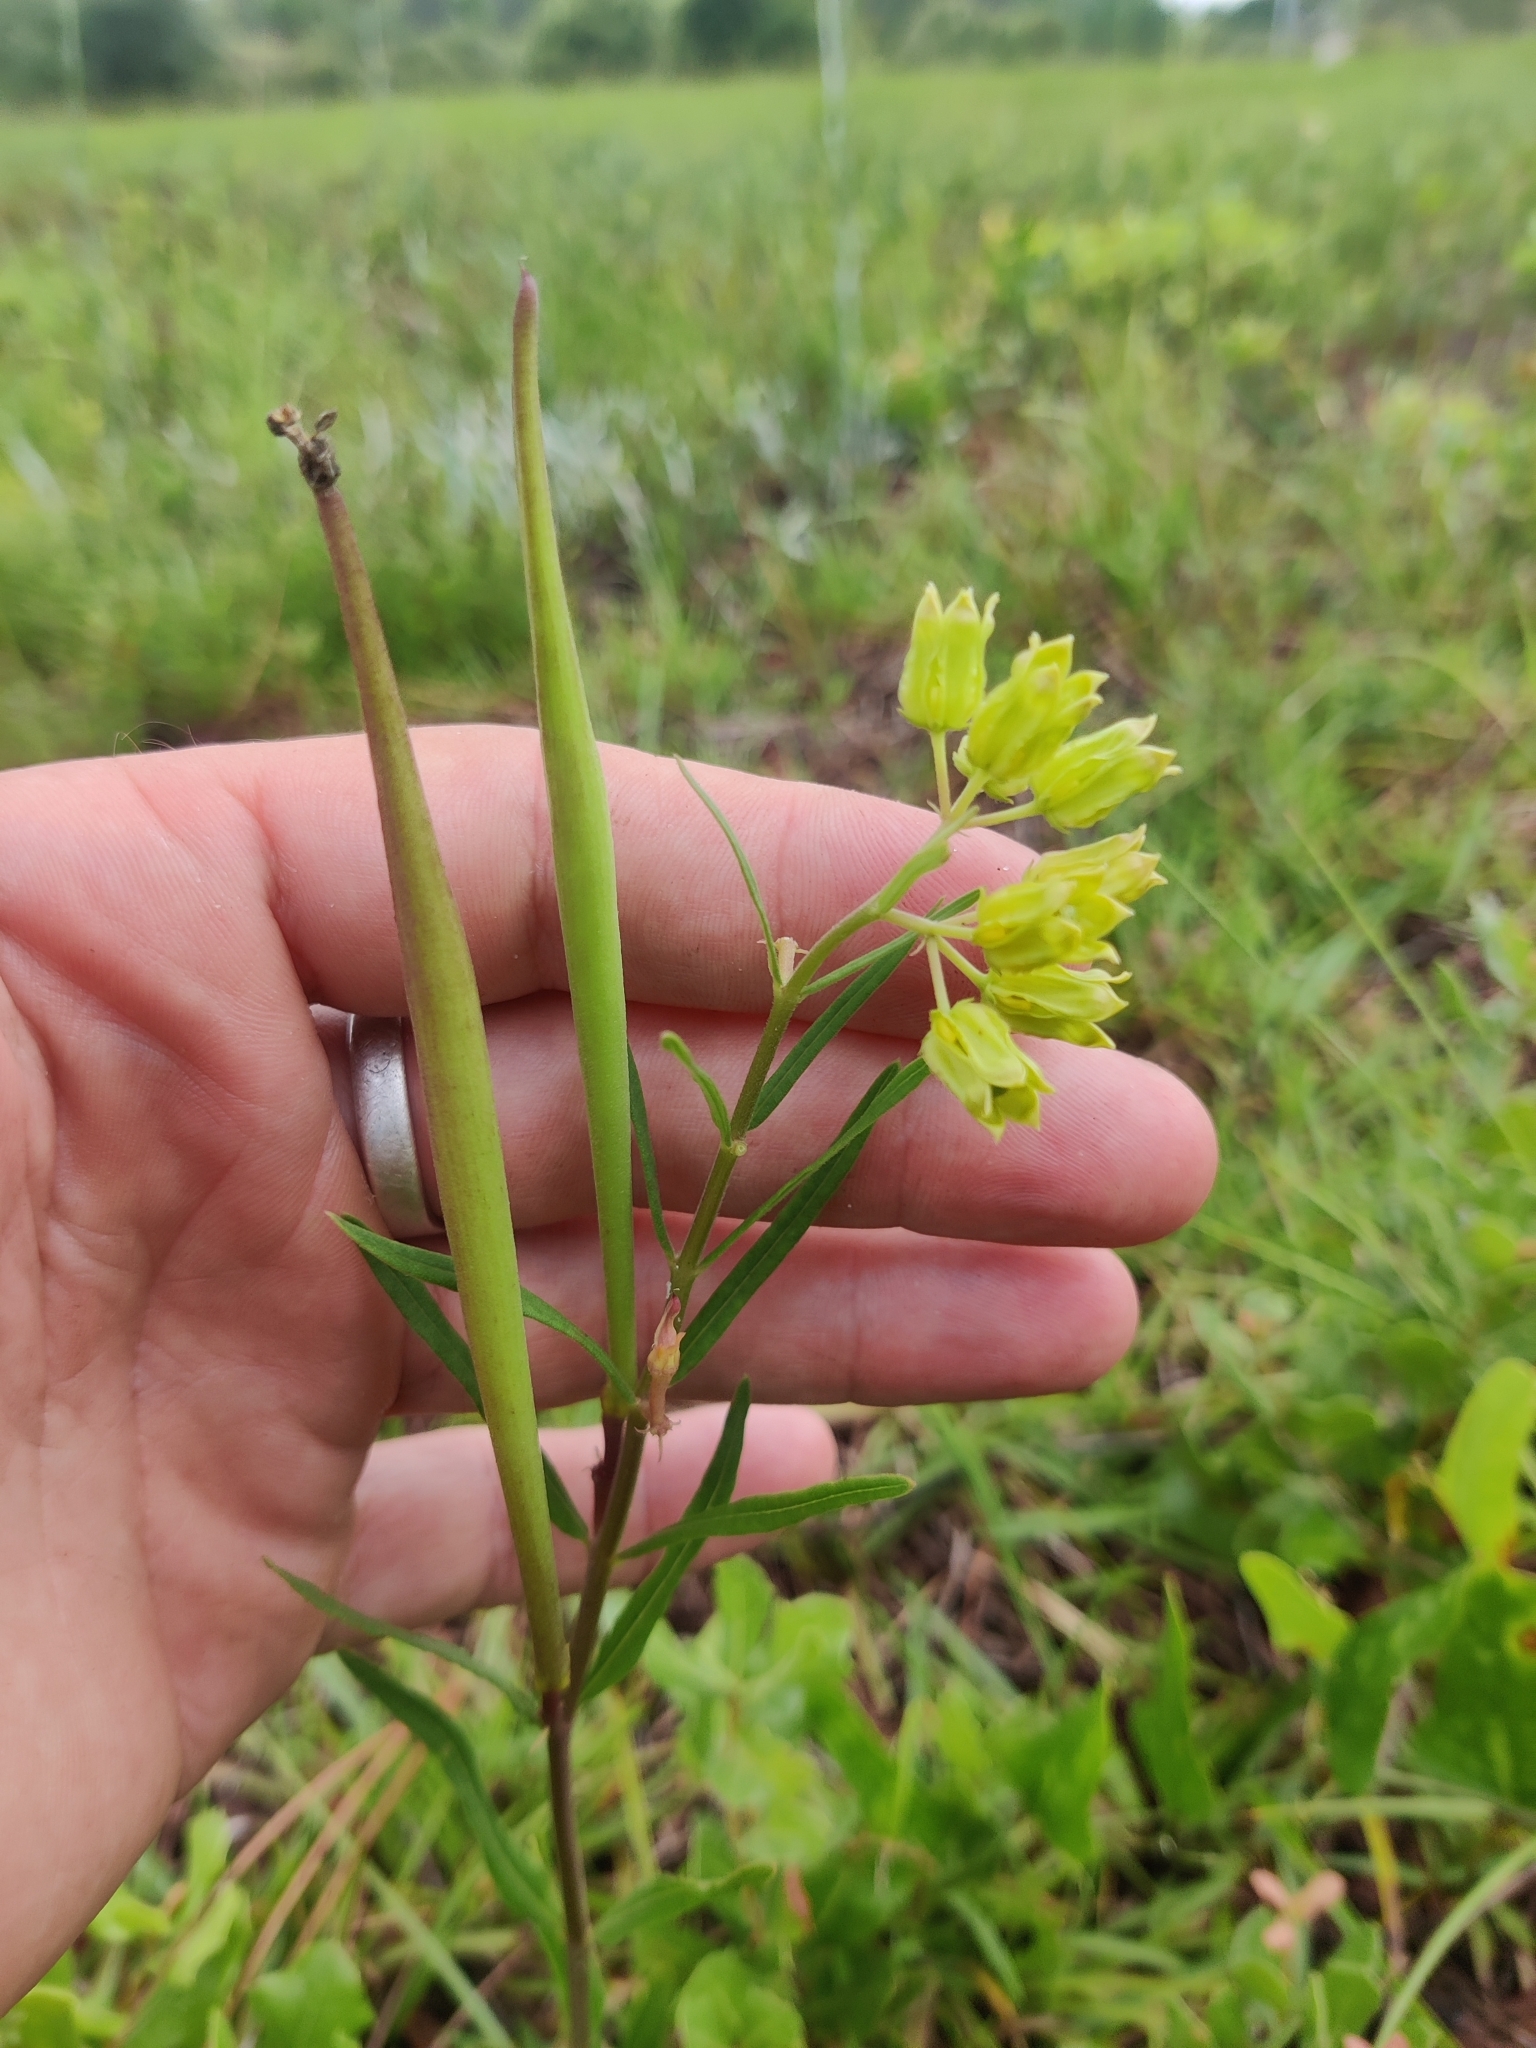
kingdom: Plantae
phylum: Tracheophyta
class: Magnoliopsida
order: Gentianales
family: Apocynaceae
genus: Asclepias
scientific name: Asclepias pedicellata
